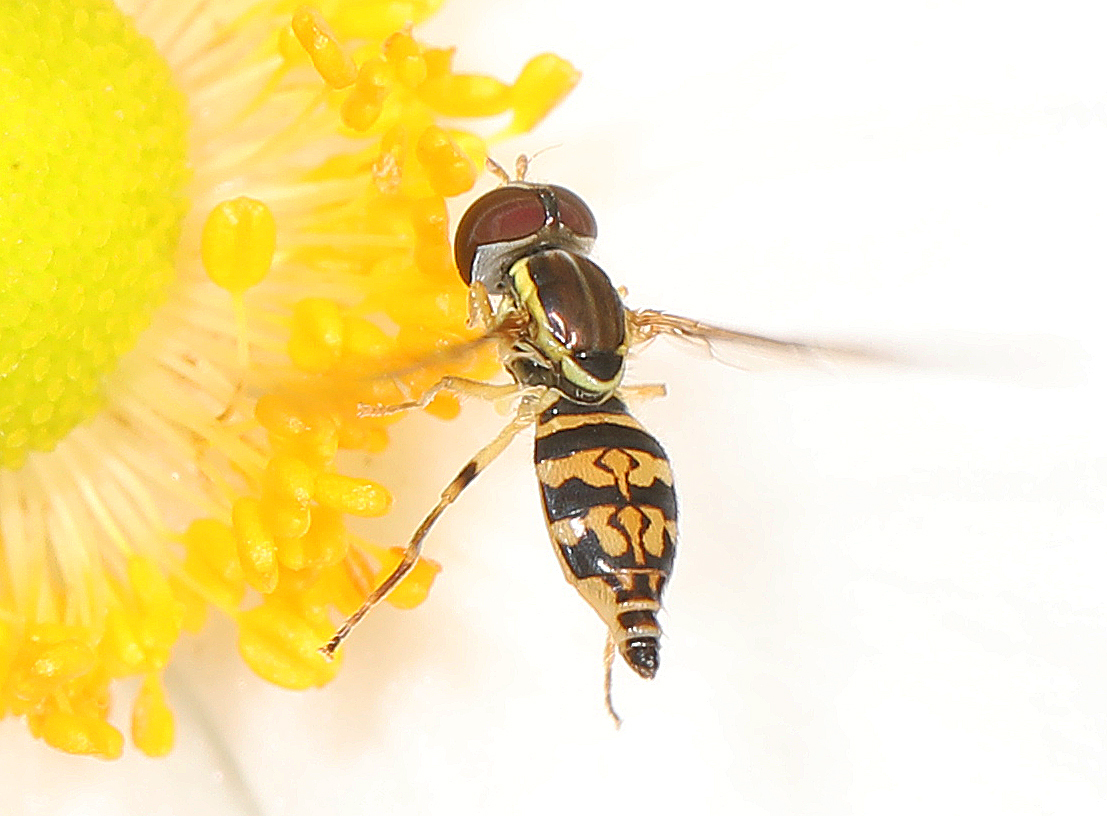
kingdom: Animalia
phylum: Arthropoda
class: Insecta
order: Diptera
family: Syrphidae
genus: Toxomerus
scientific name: Toxomerus geminatus
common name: Eastern calligrapher
